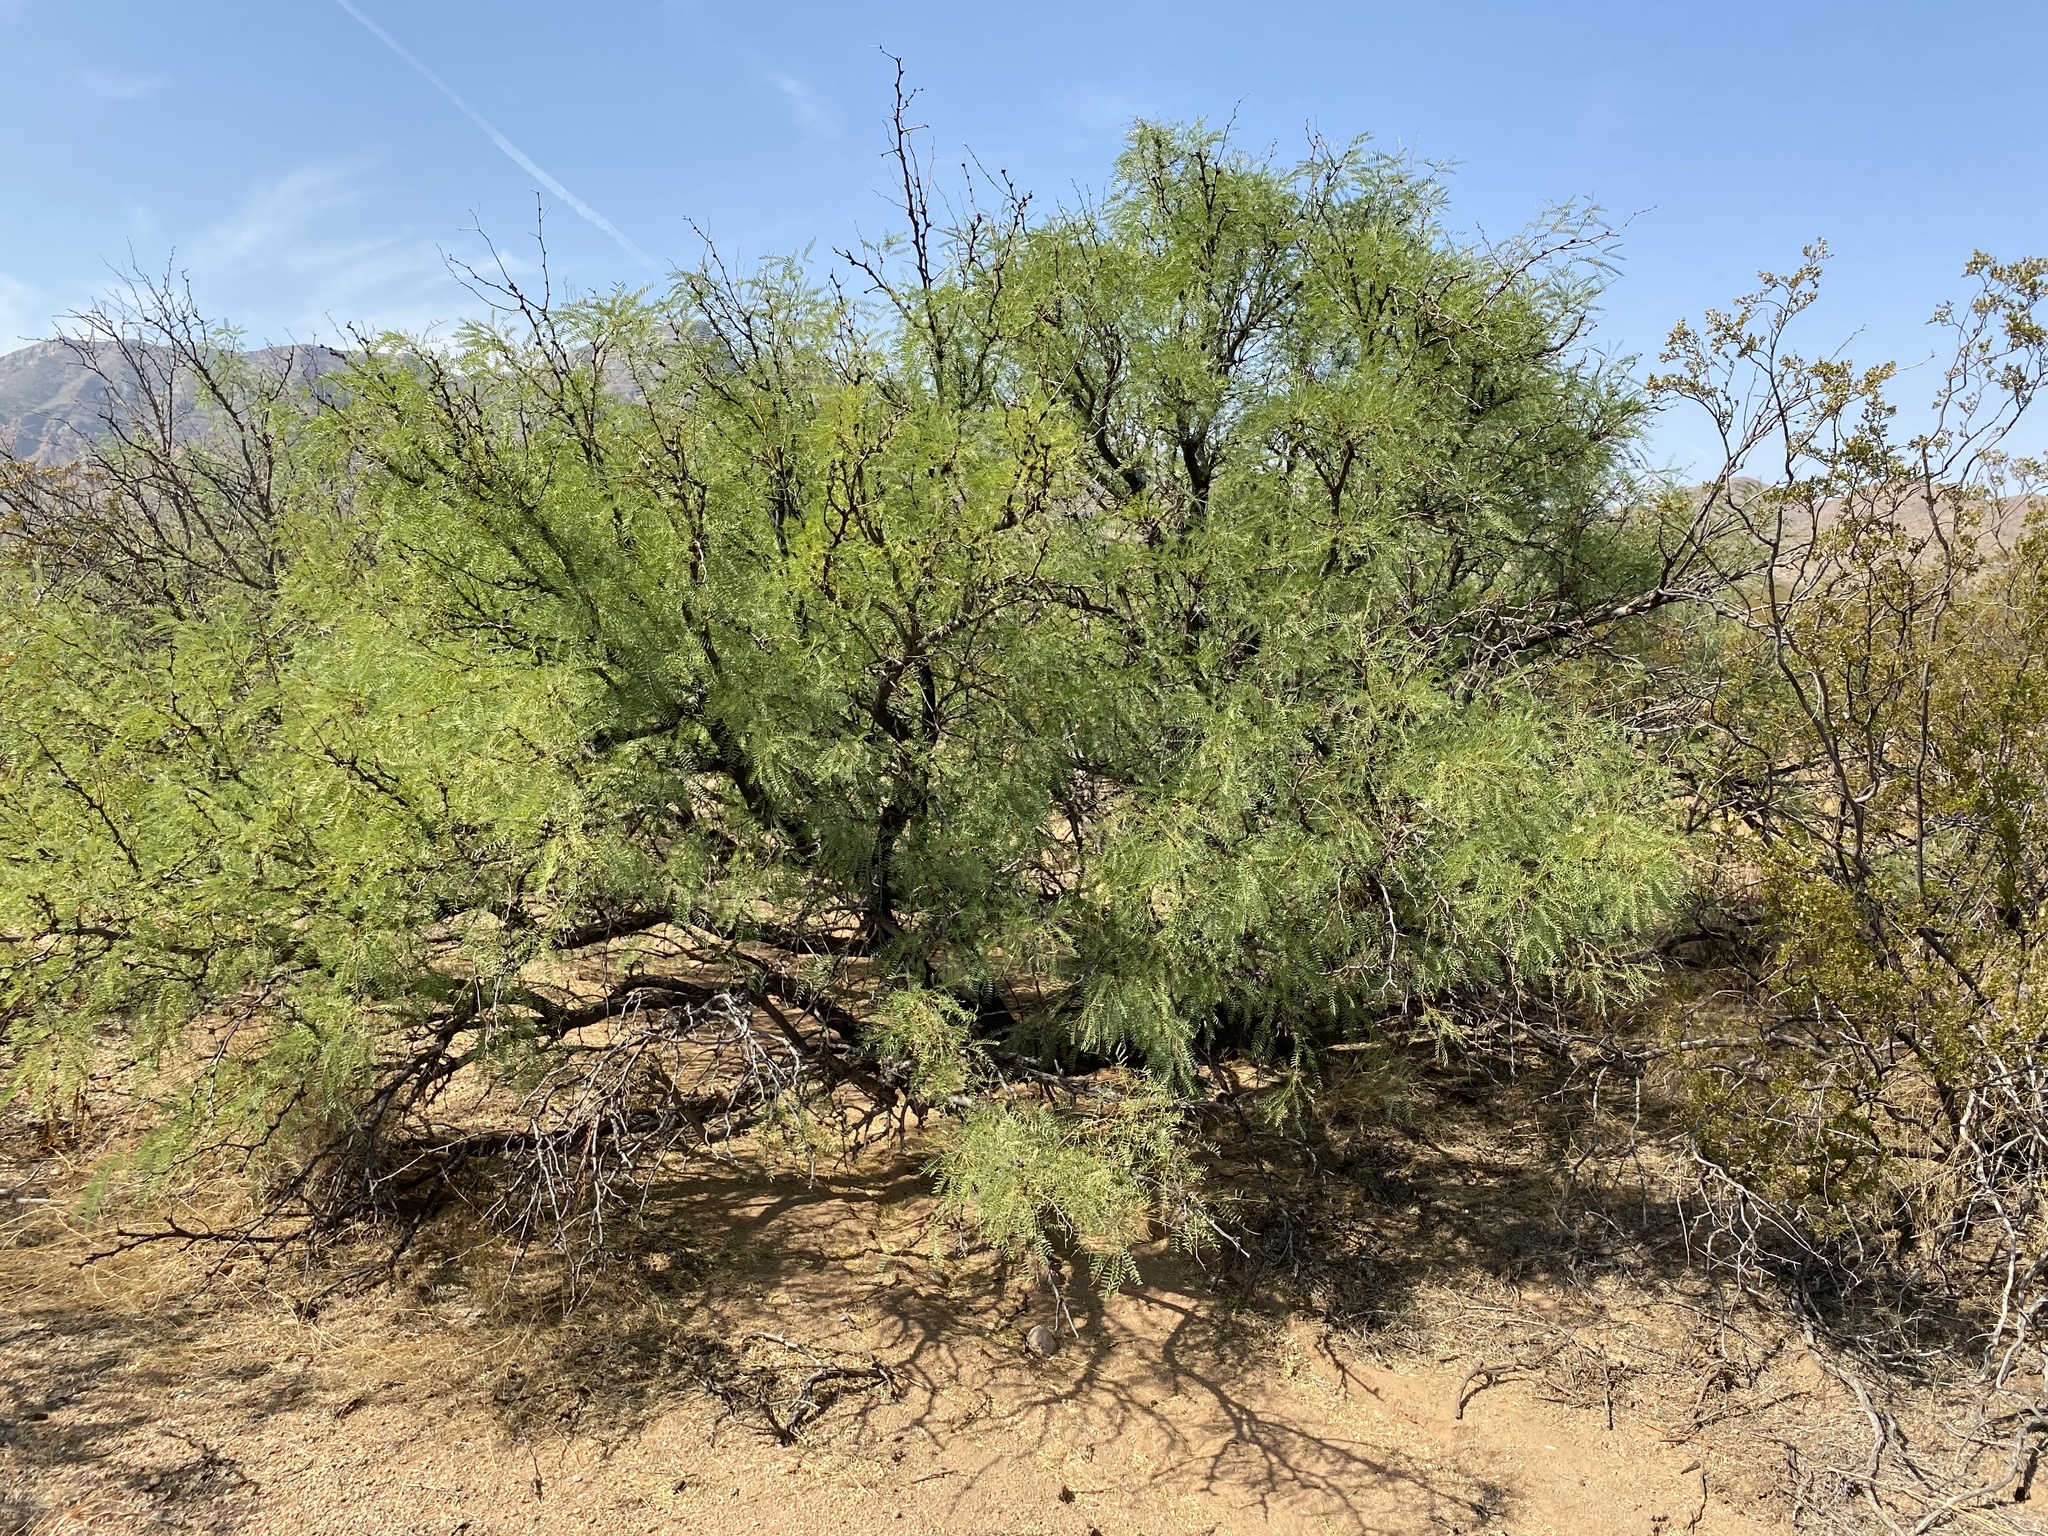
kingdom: Plantae
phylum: Tracheophyta
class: Magnoliopsida
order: Fabales
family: Fabaceae
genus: Prosopis
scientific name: Prosopis glandulosa
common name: Honey mesquite
